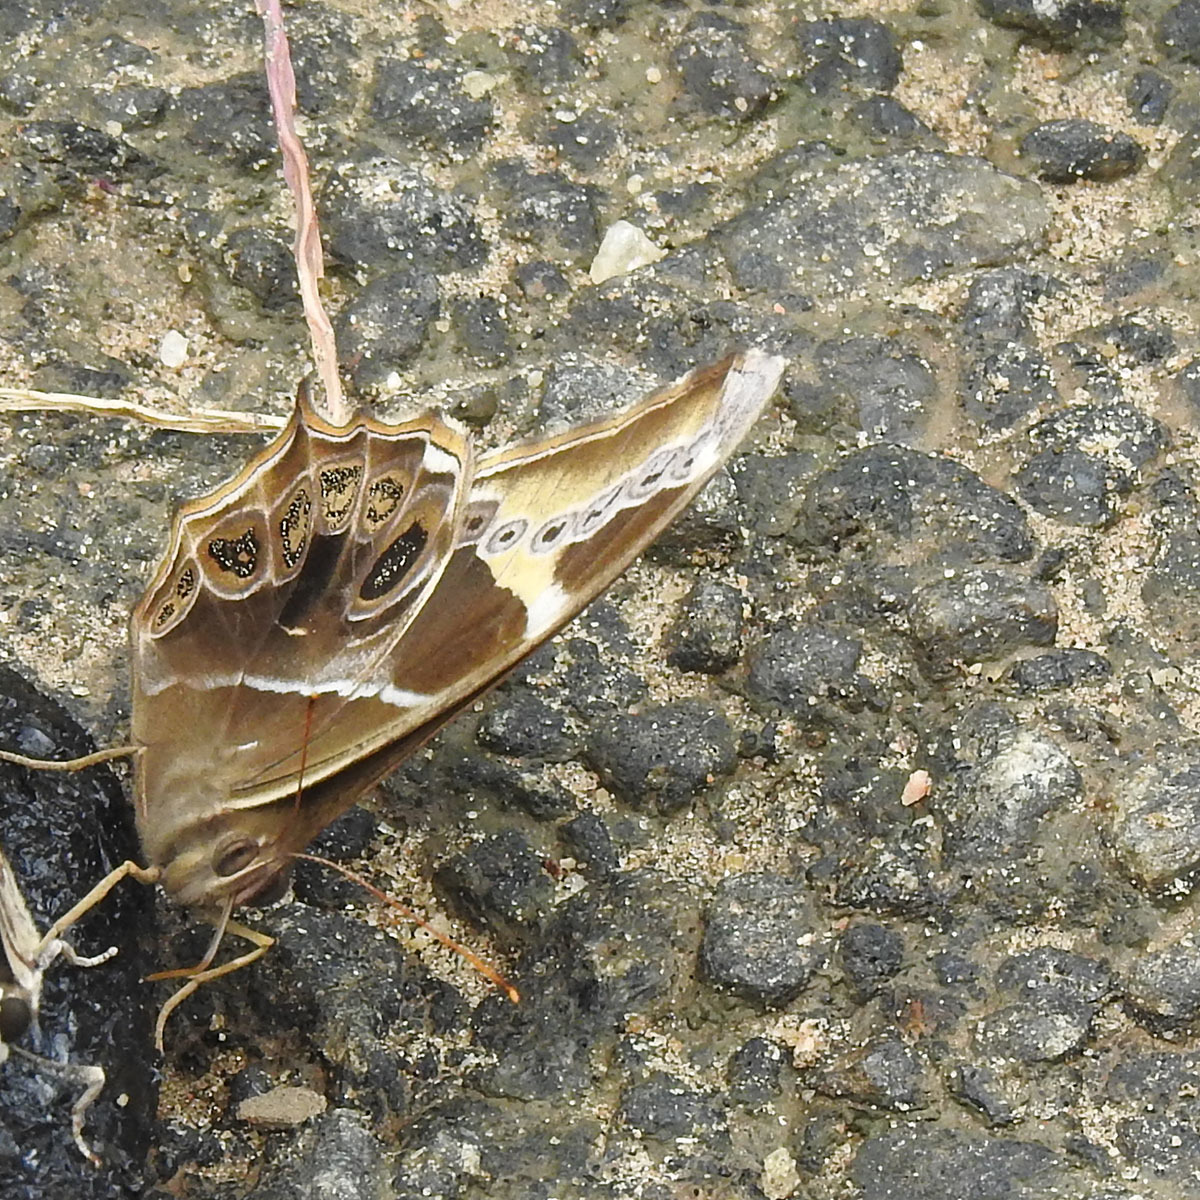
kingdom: Animalia
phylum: Arthropoda
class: Insecta
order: Lepidoptera
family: Nymphalidae
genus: Lethe
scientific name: Lethe europa
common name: Bamboo treebrown
